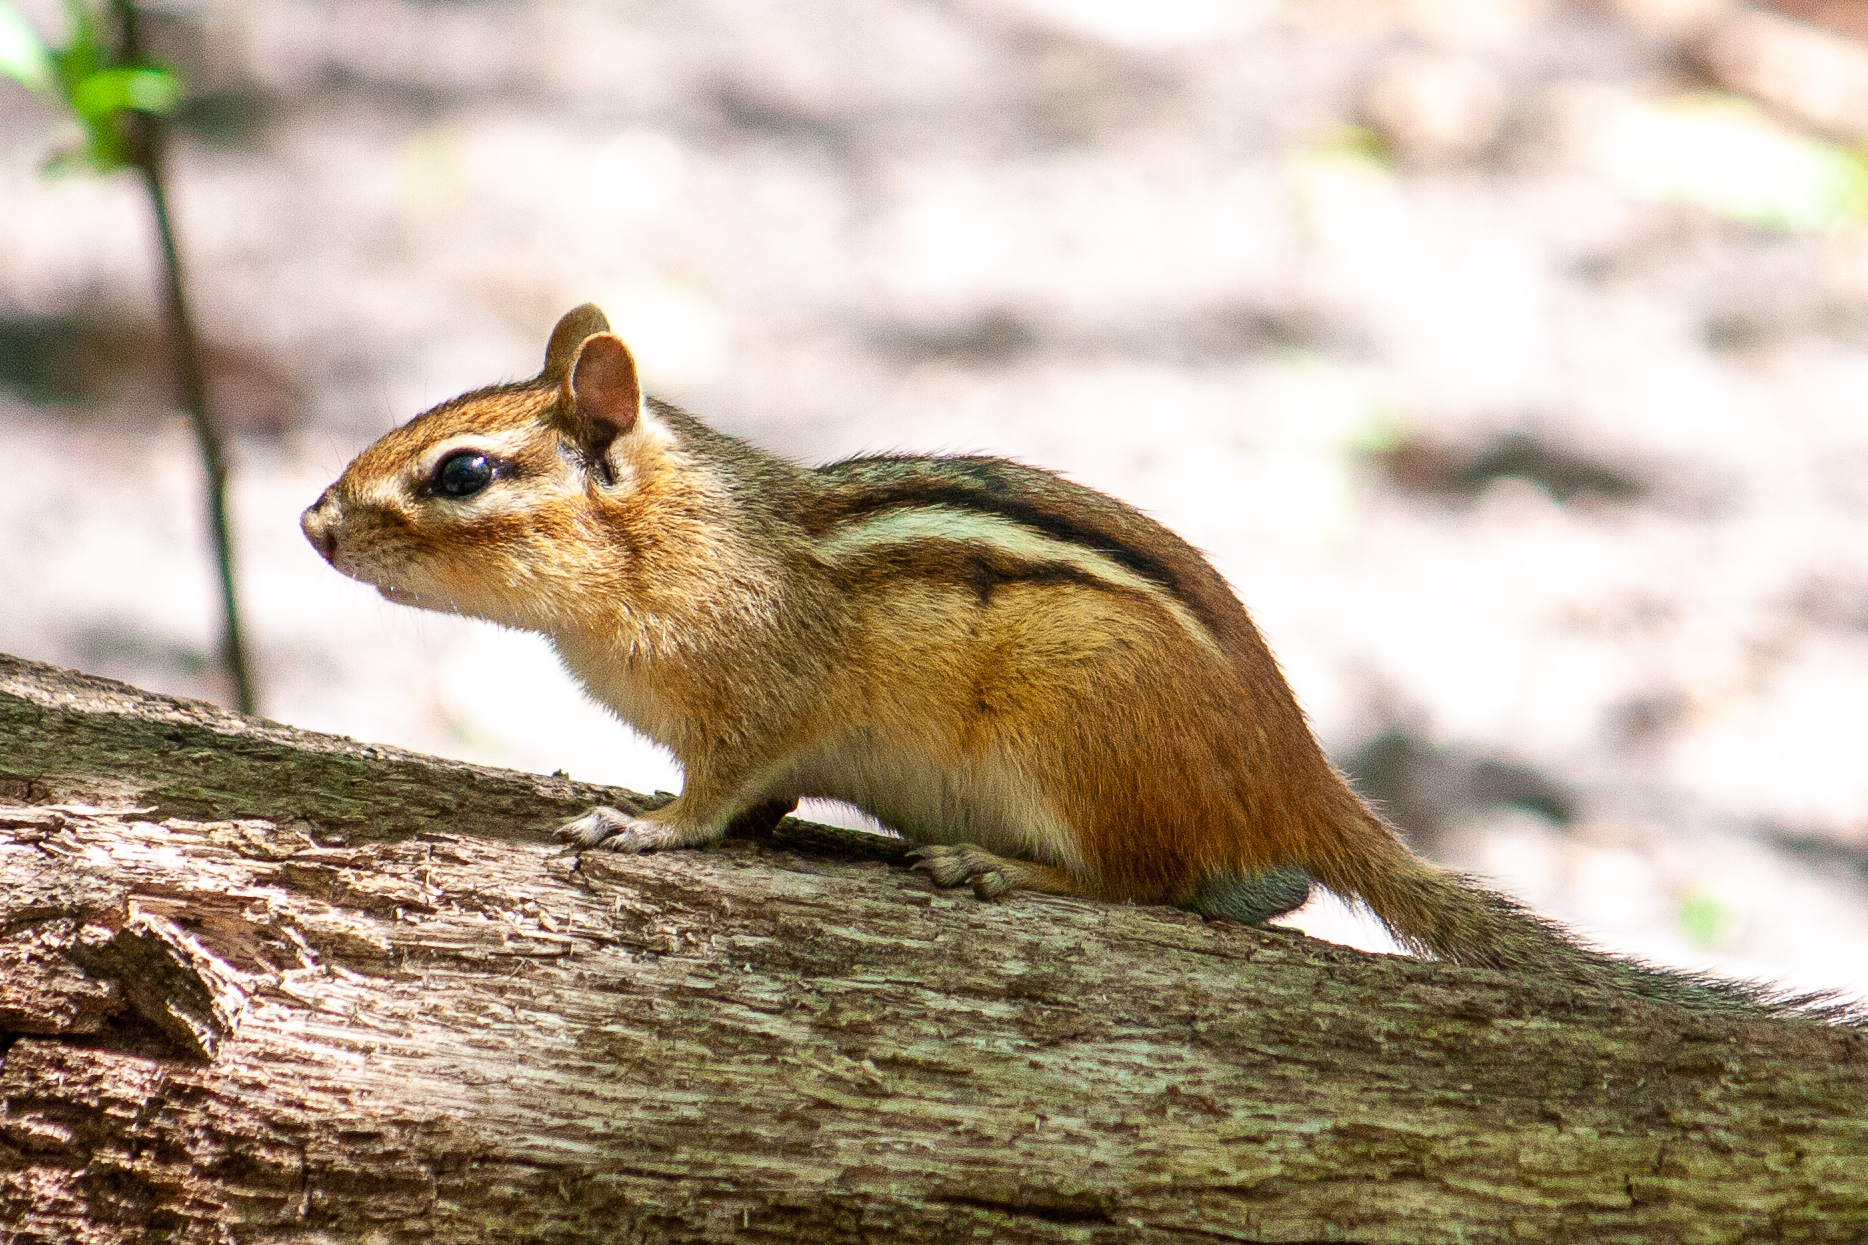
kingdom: Animalia
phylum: Chordata
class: Mammalia
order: Rodentia
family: Sciuridae
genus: Tamias
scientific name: Tamias striatus
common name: Eastern chipmunk
